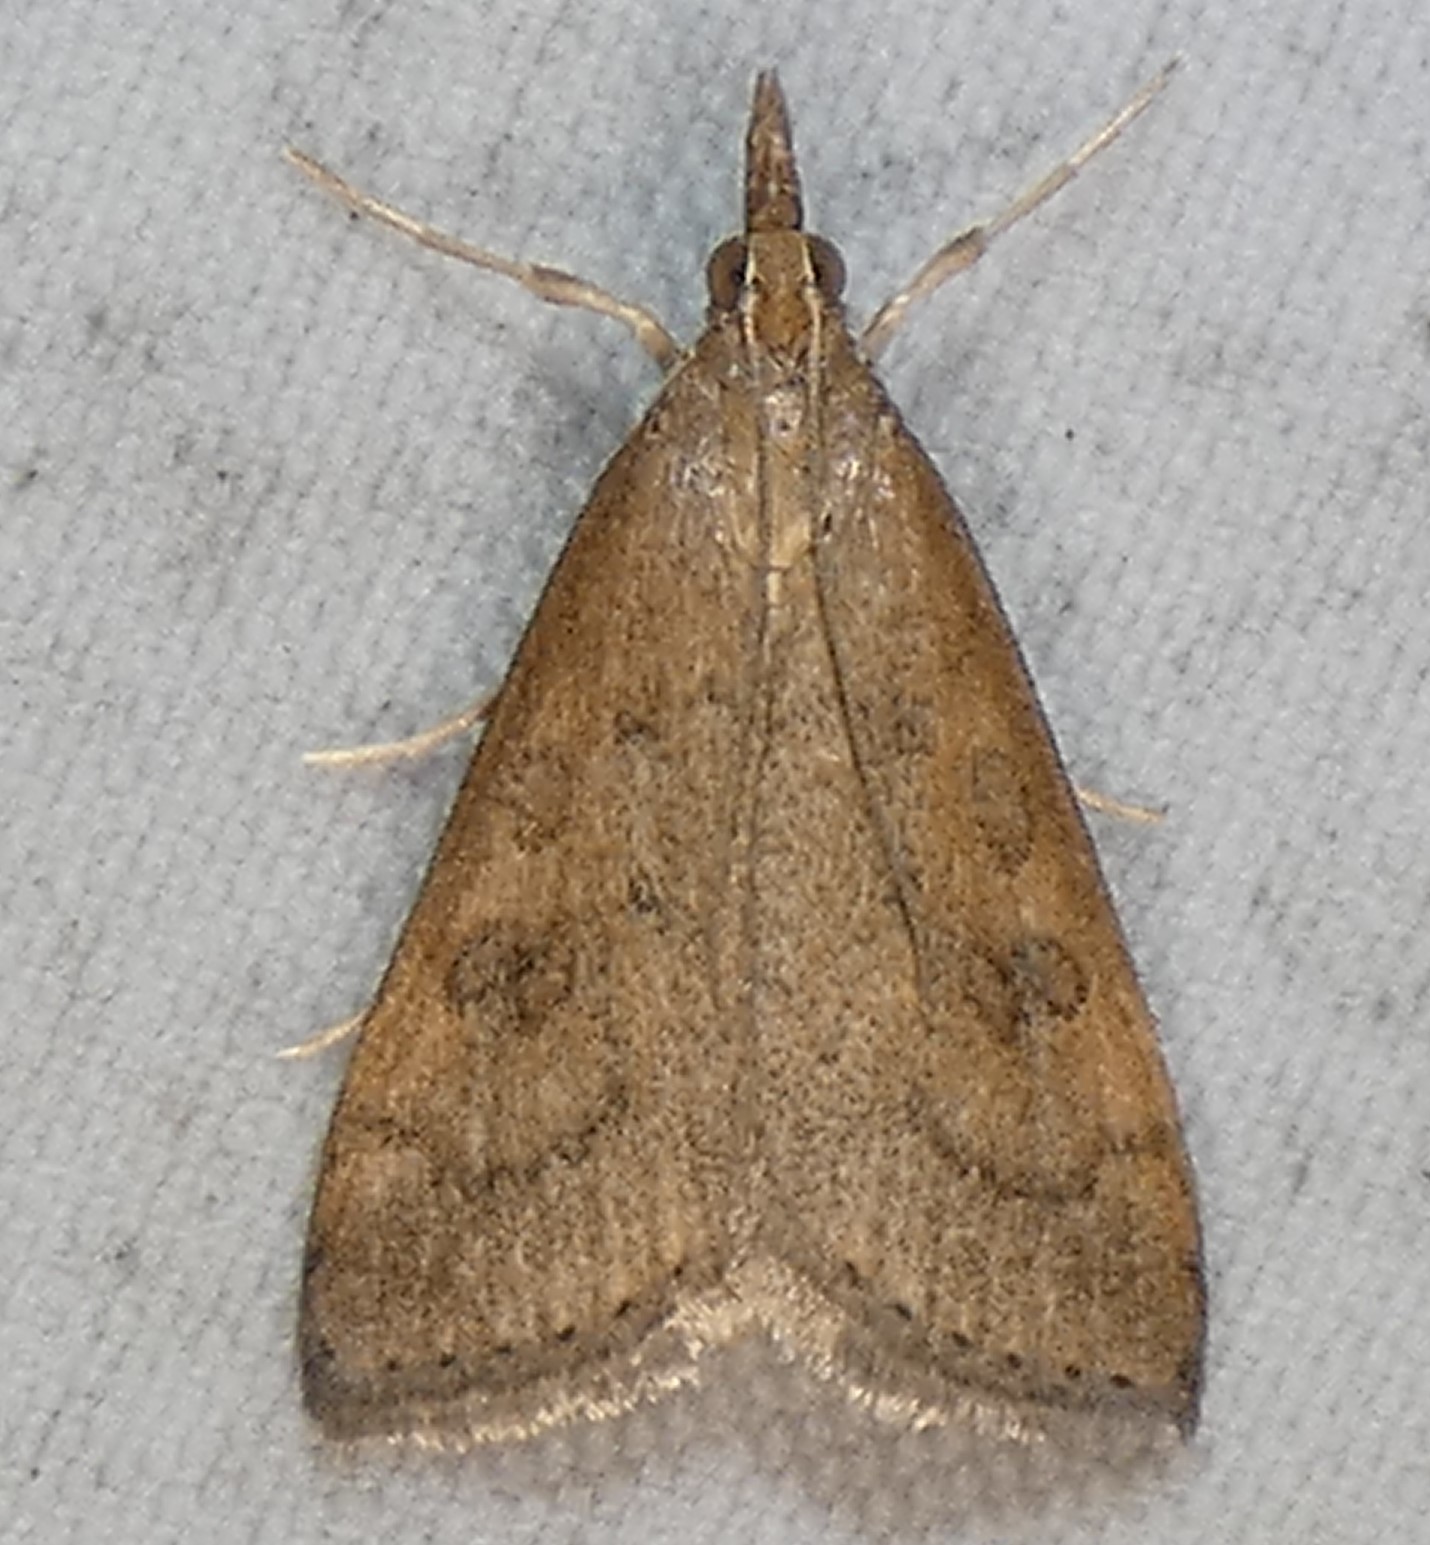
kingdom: Animalia
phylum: Arthropoda
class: Insecta
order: Lepidoptera
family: Crambidae
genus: Udea
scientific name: Udea rubigalis
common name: Celery leaftier moth
